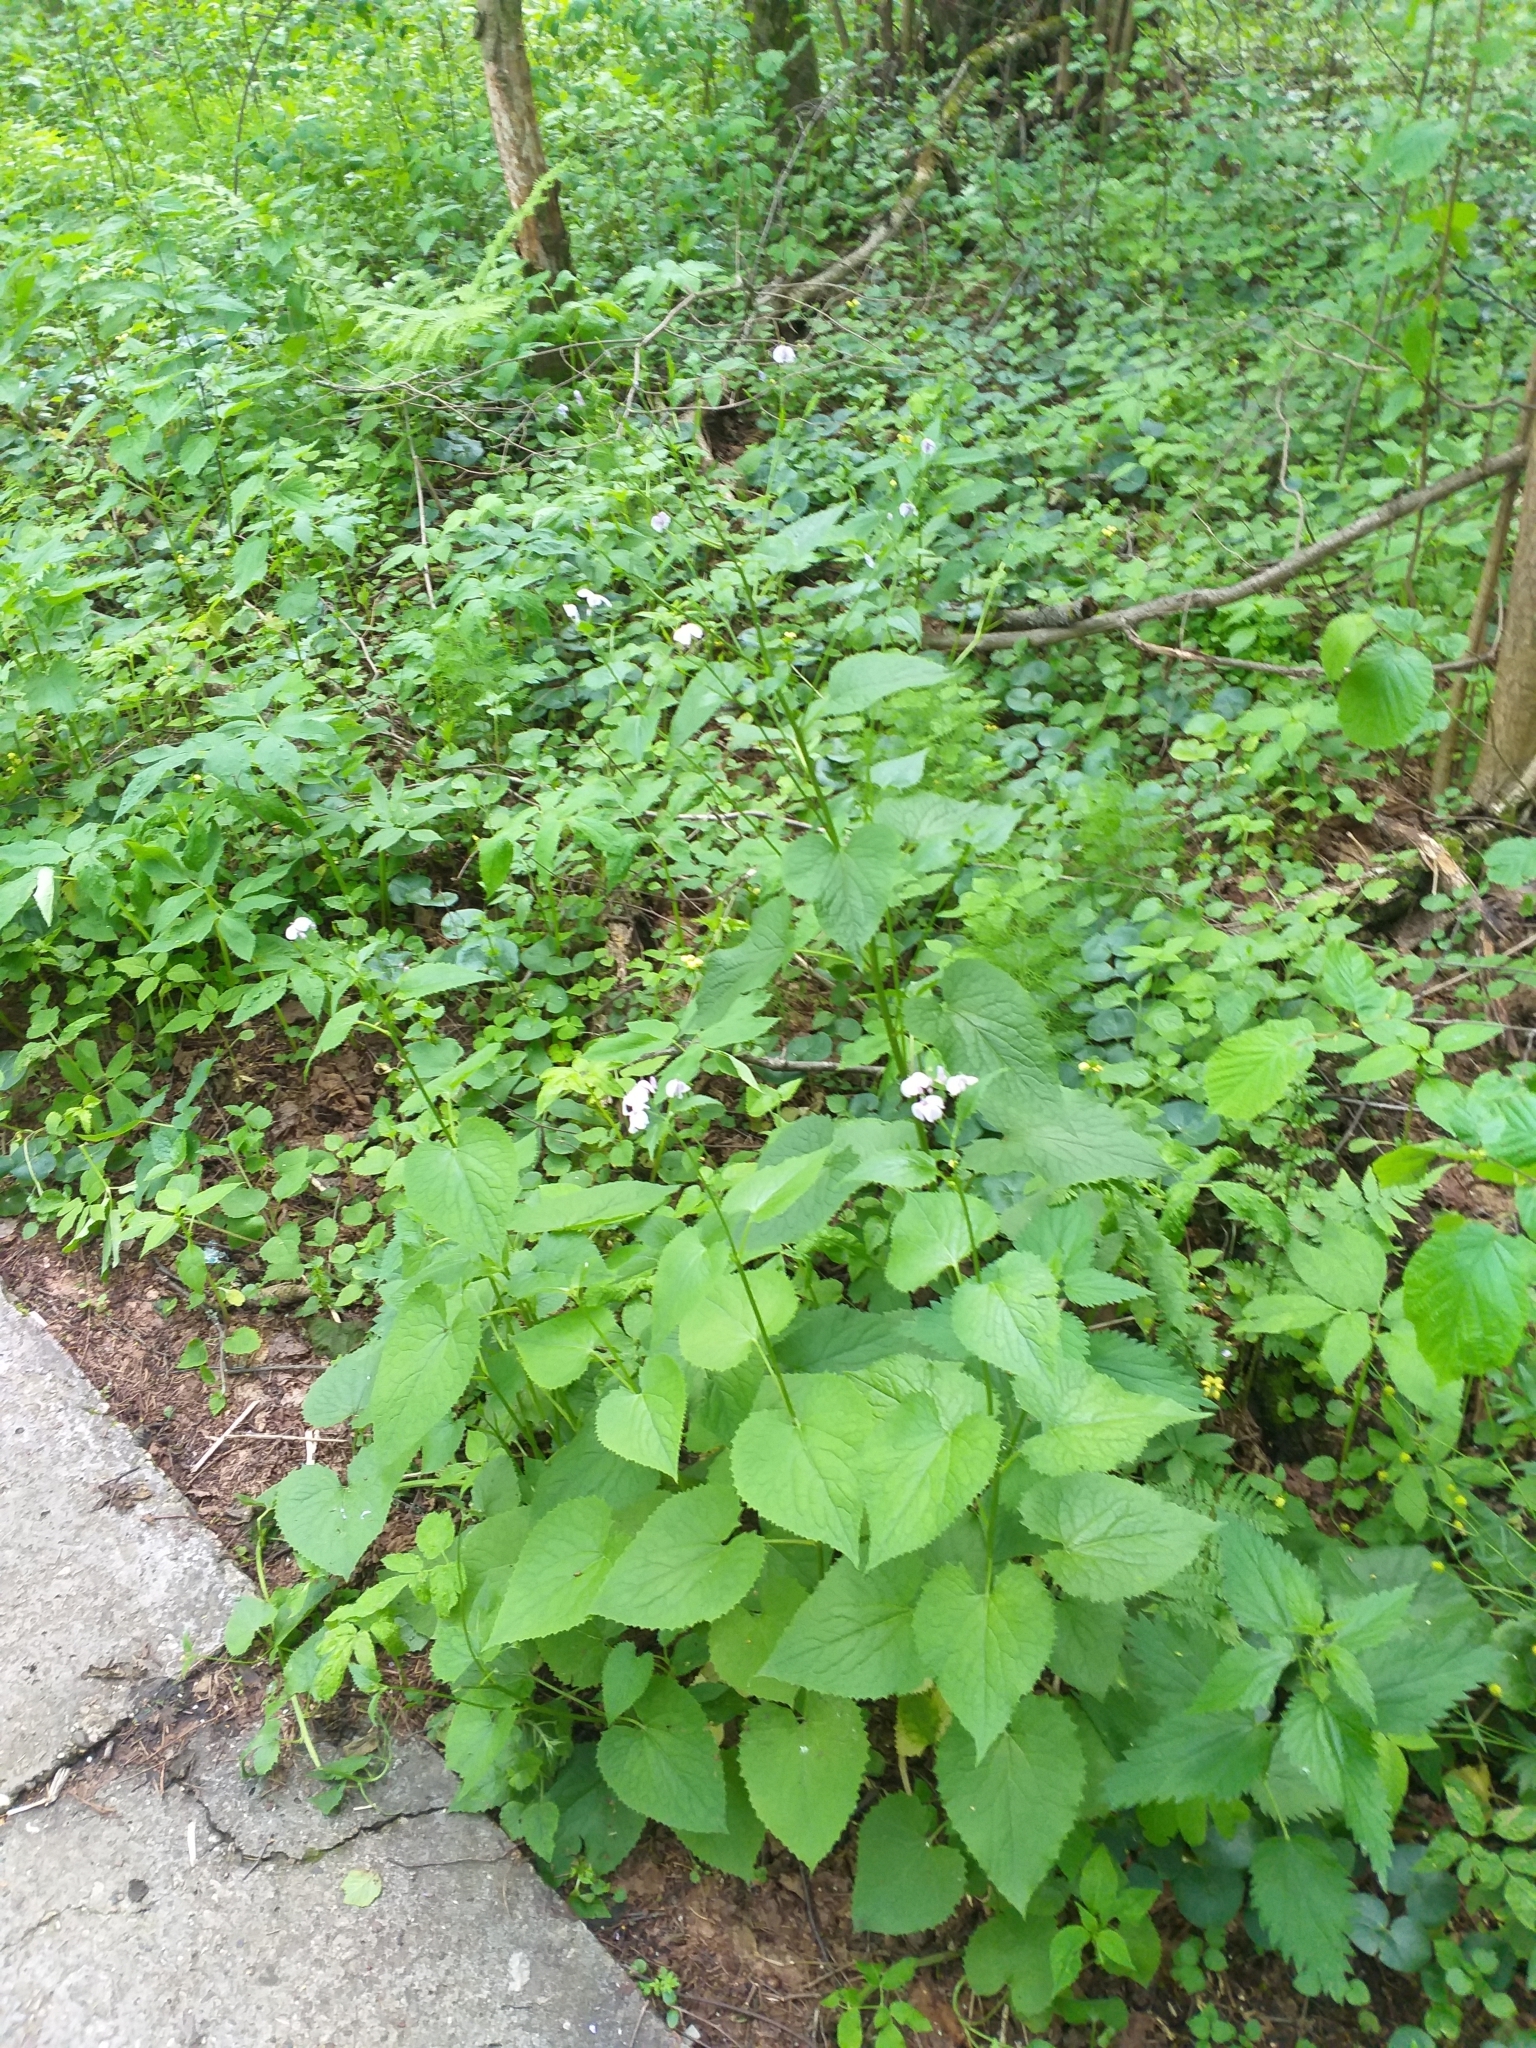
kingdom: Plantae
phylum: Tracheophyta
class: Magnoliopsida
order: Brassicales
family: Brassicaceae
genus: Lunaria
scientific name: Lunaria rediviva
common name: Perennial honesty
